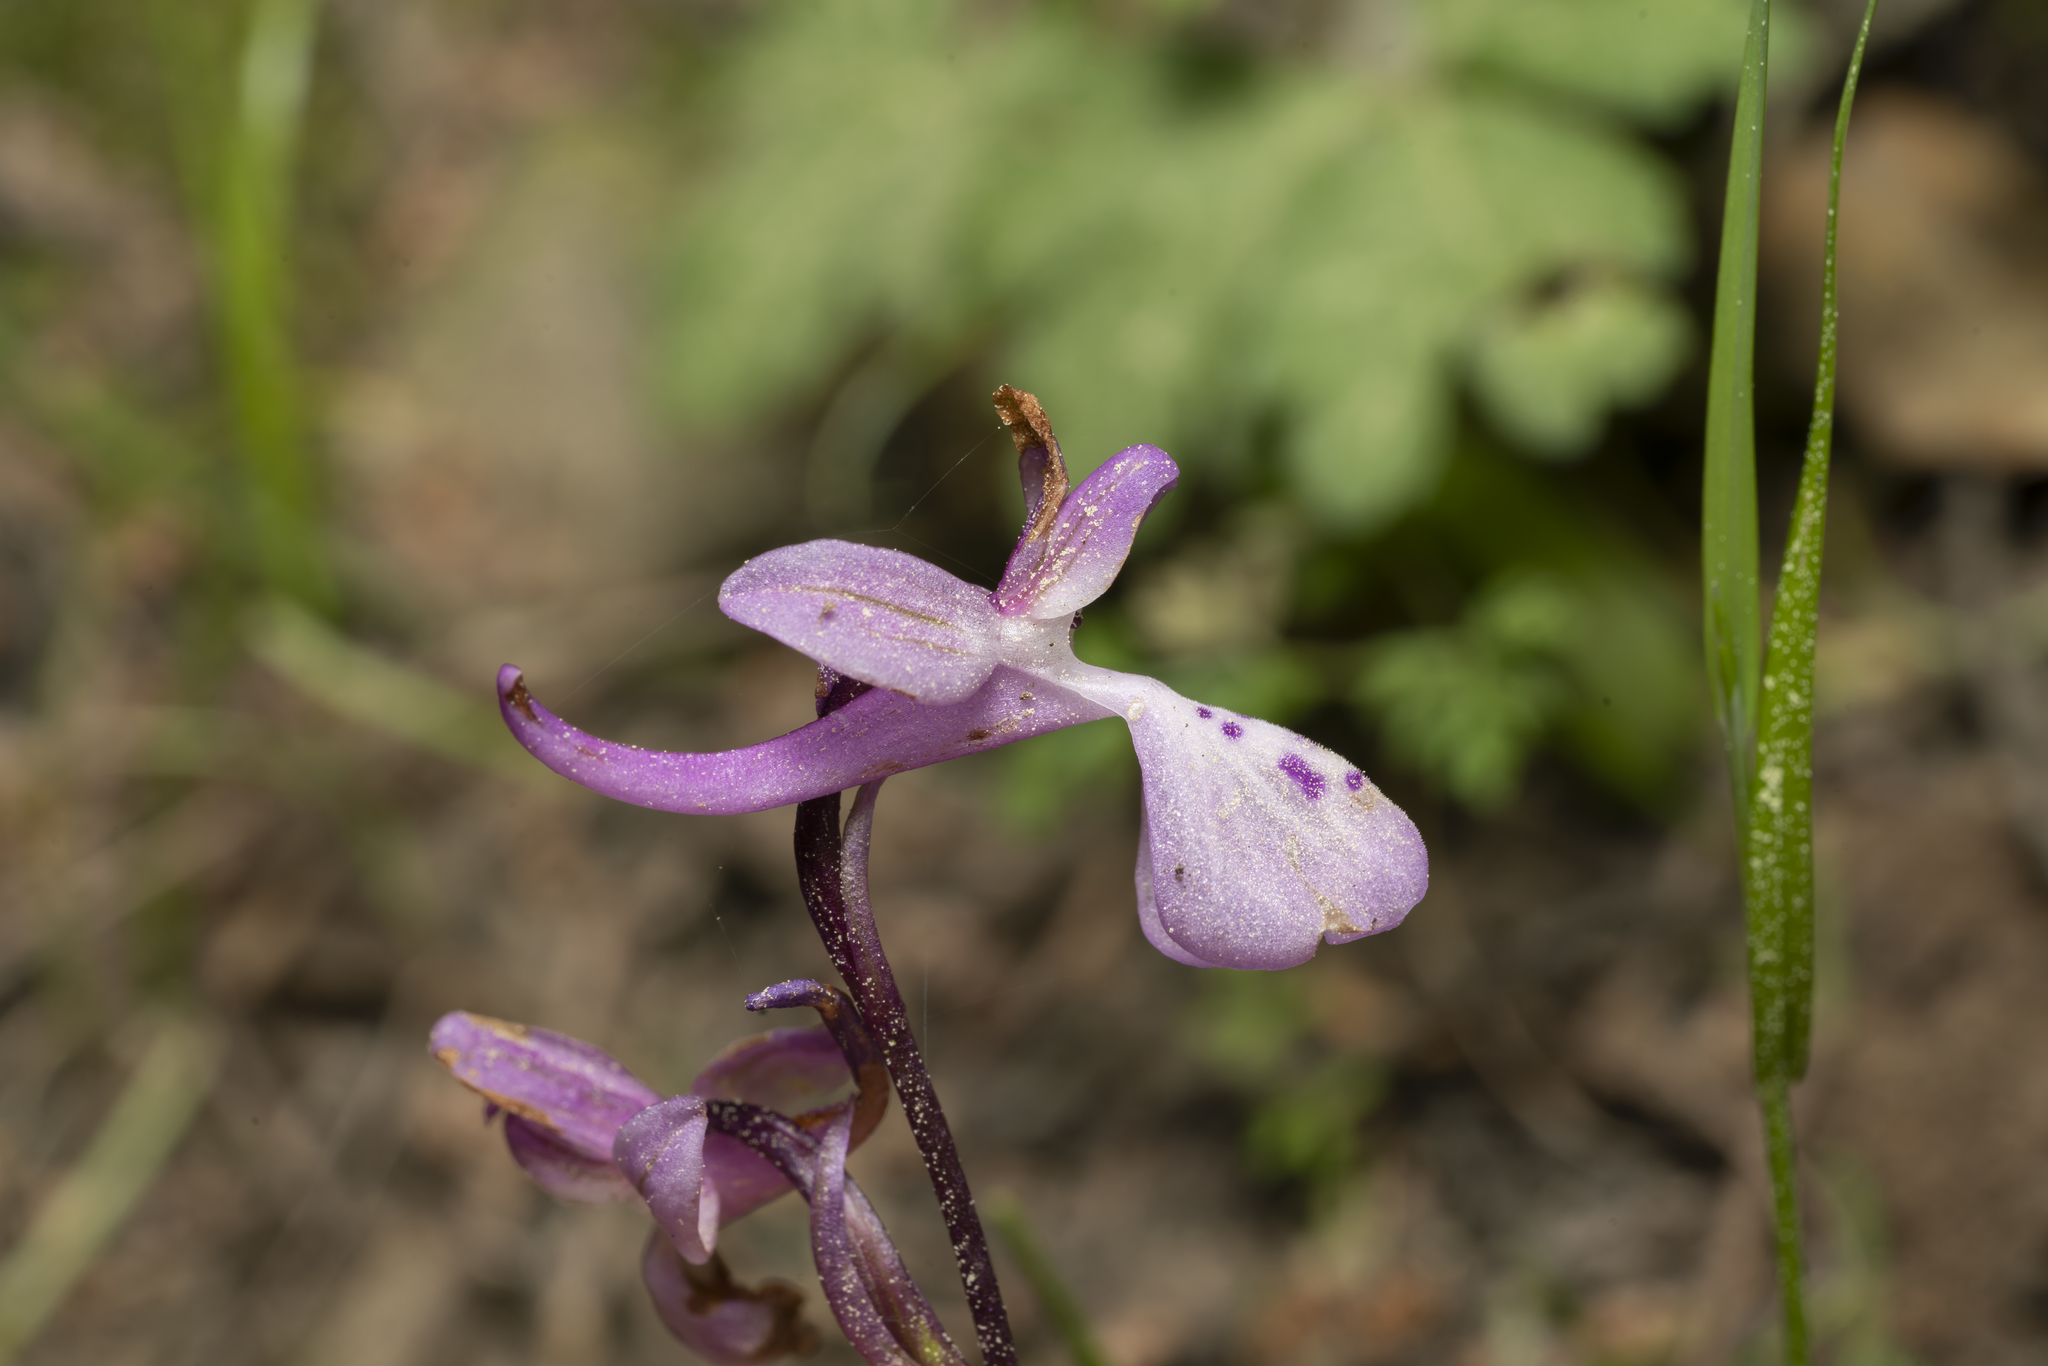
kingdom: Plantae
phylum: Tracheophyta
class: Liliopsida
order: Asparagales
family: Orchidaceae
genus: Orchis
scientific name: Orchis anatolica
